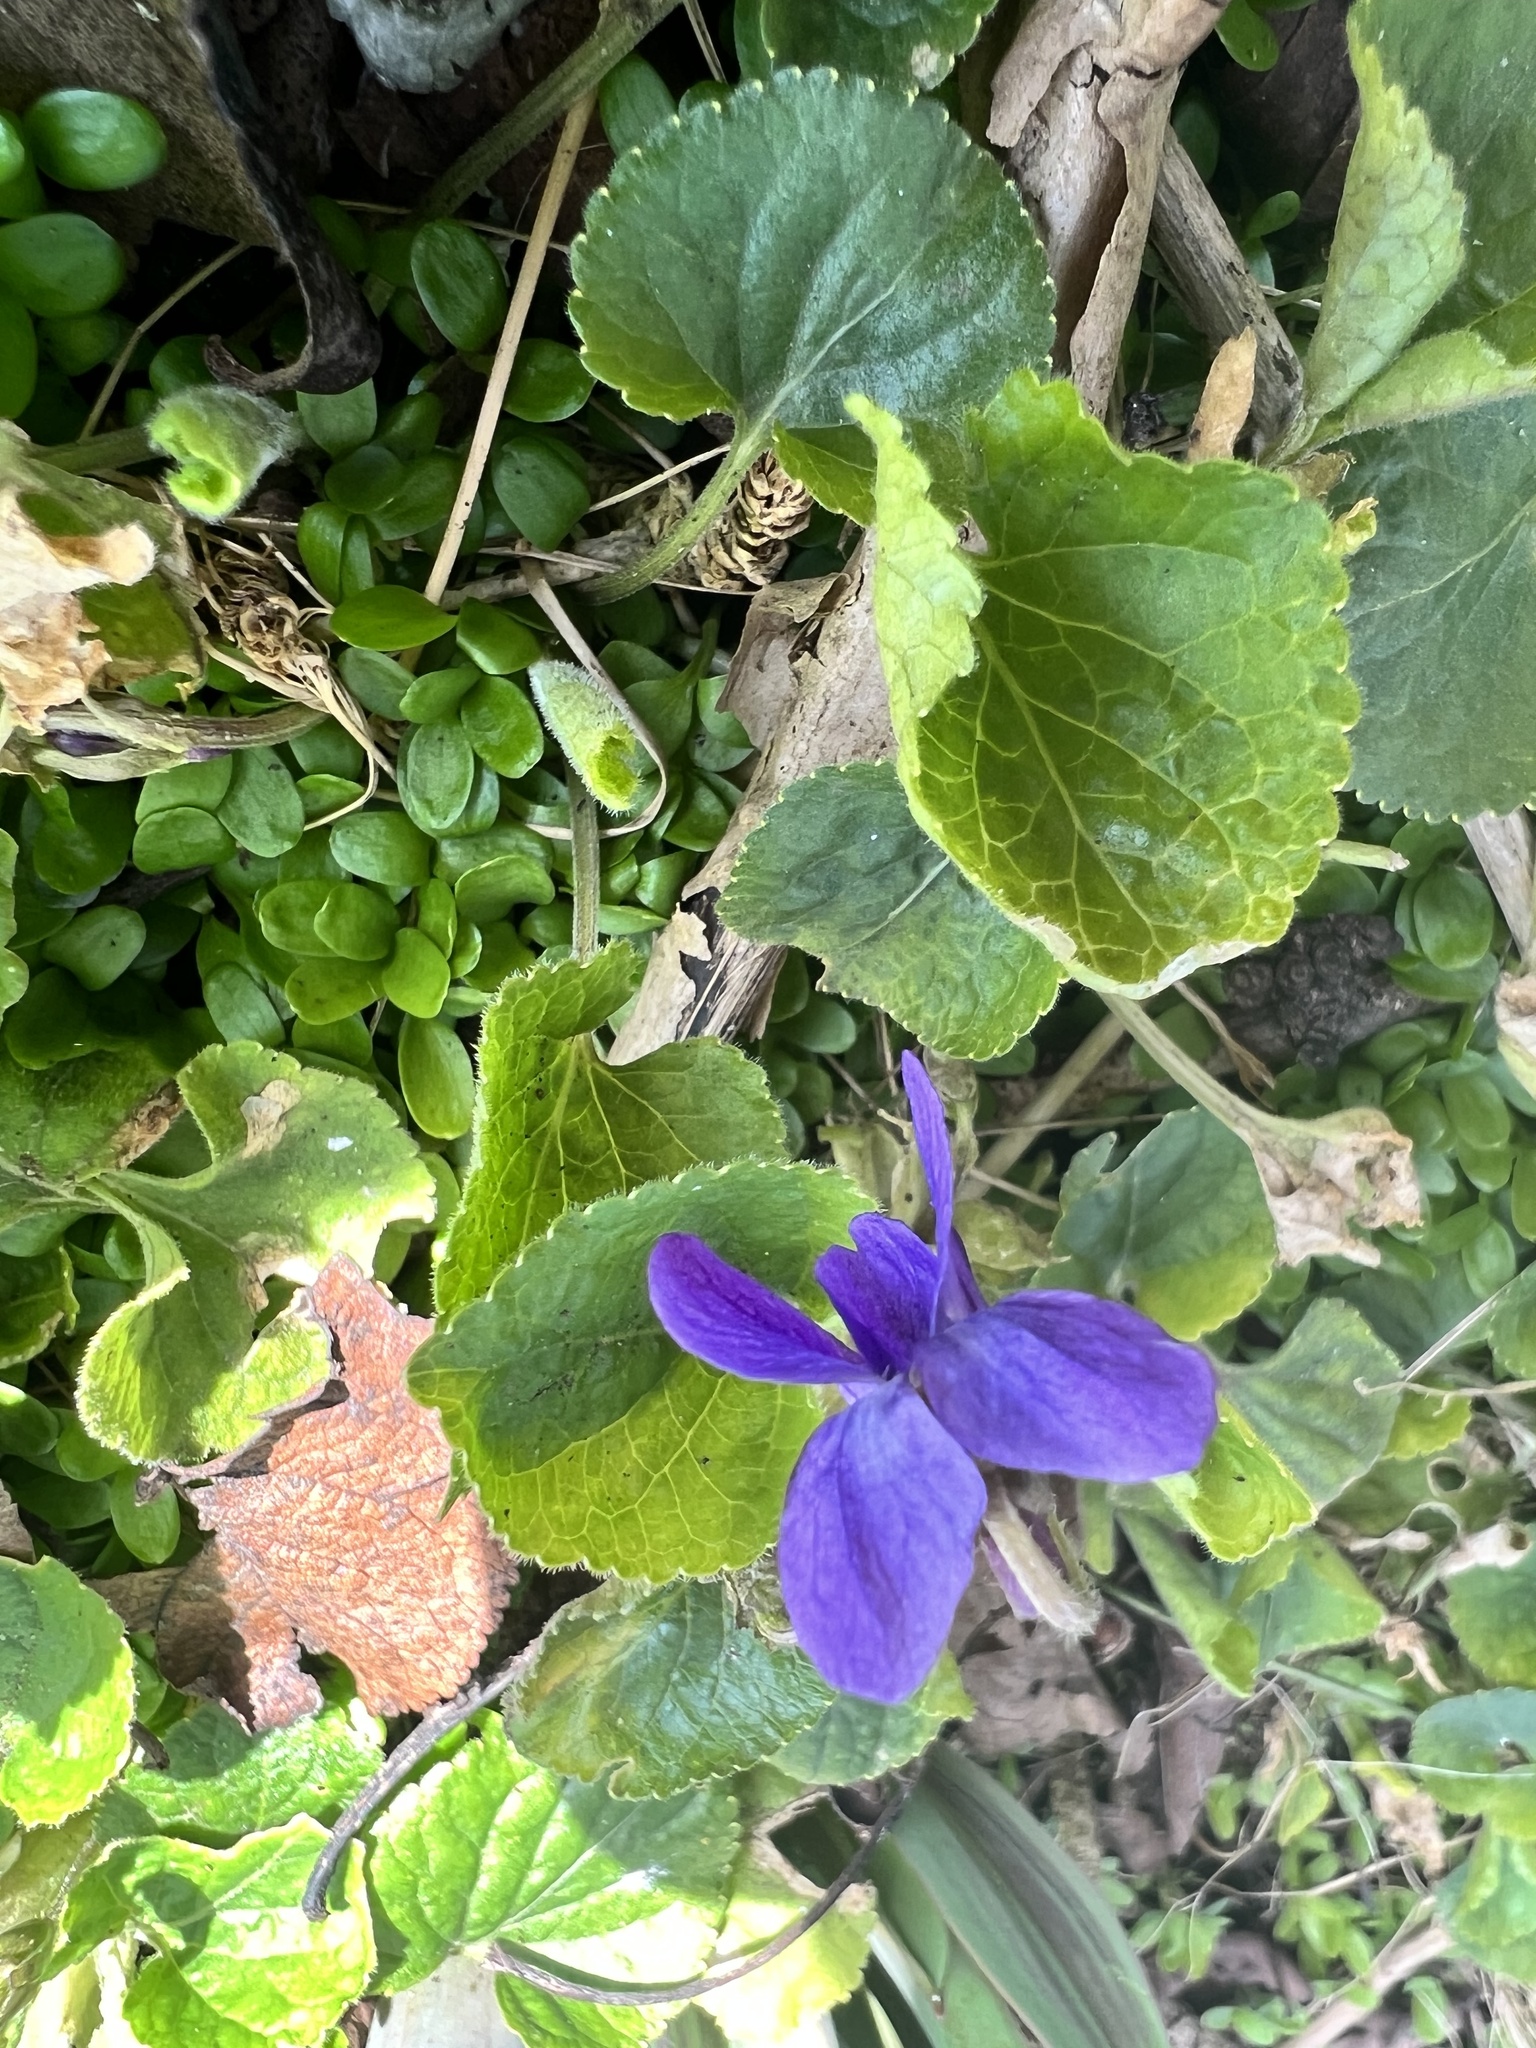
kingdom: Plantae
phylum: Tracheophyta
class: Magnoliopsida
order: Malpighiales
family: Violaceae
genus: Viola
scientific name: Viola odorata
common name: Sweet violet
